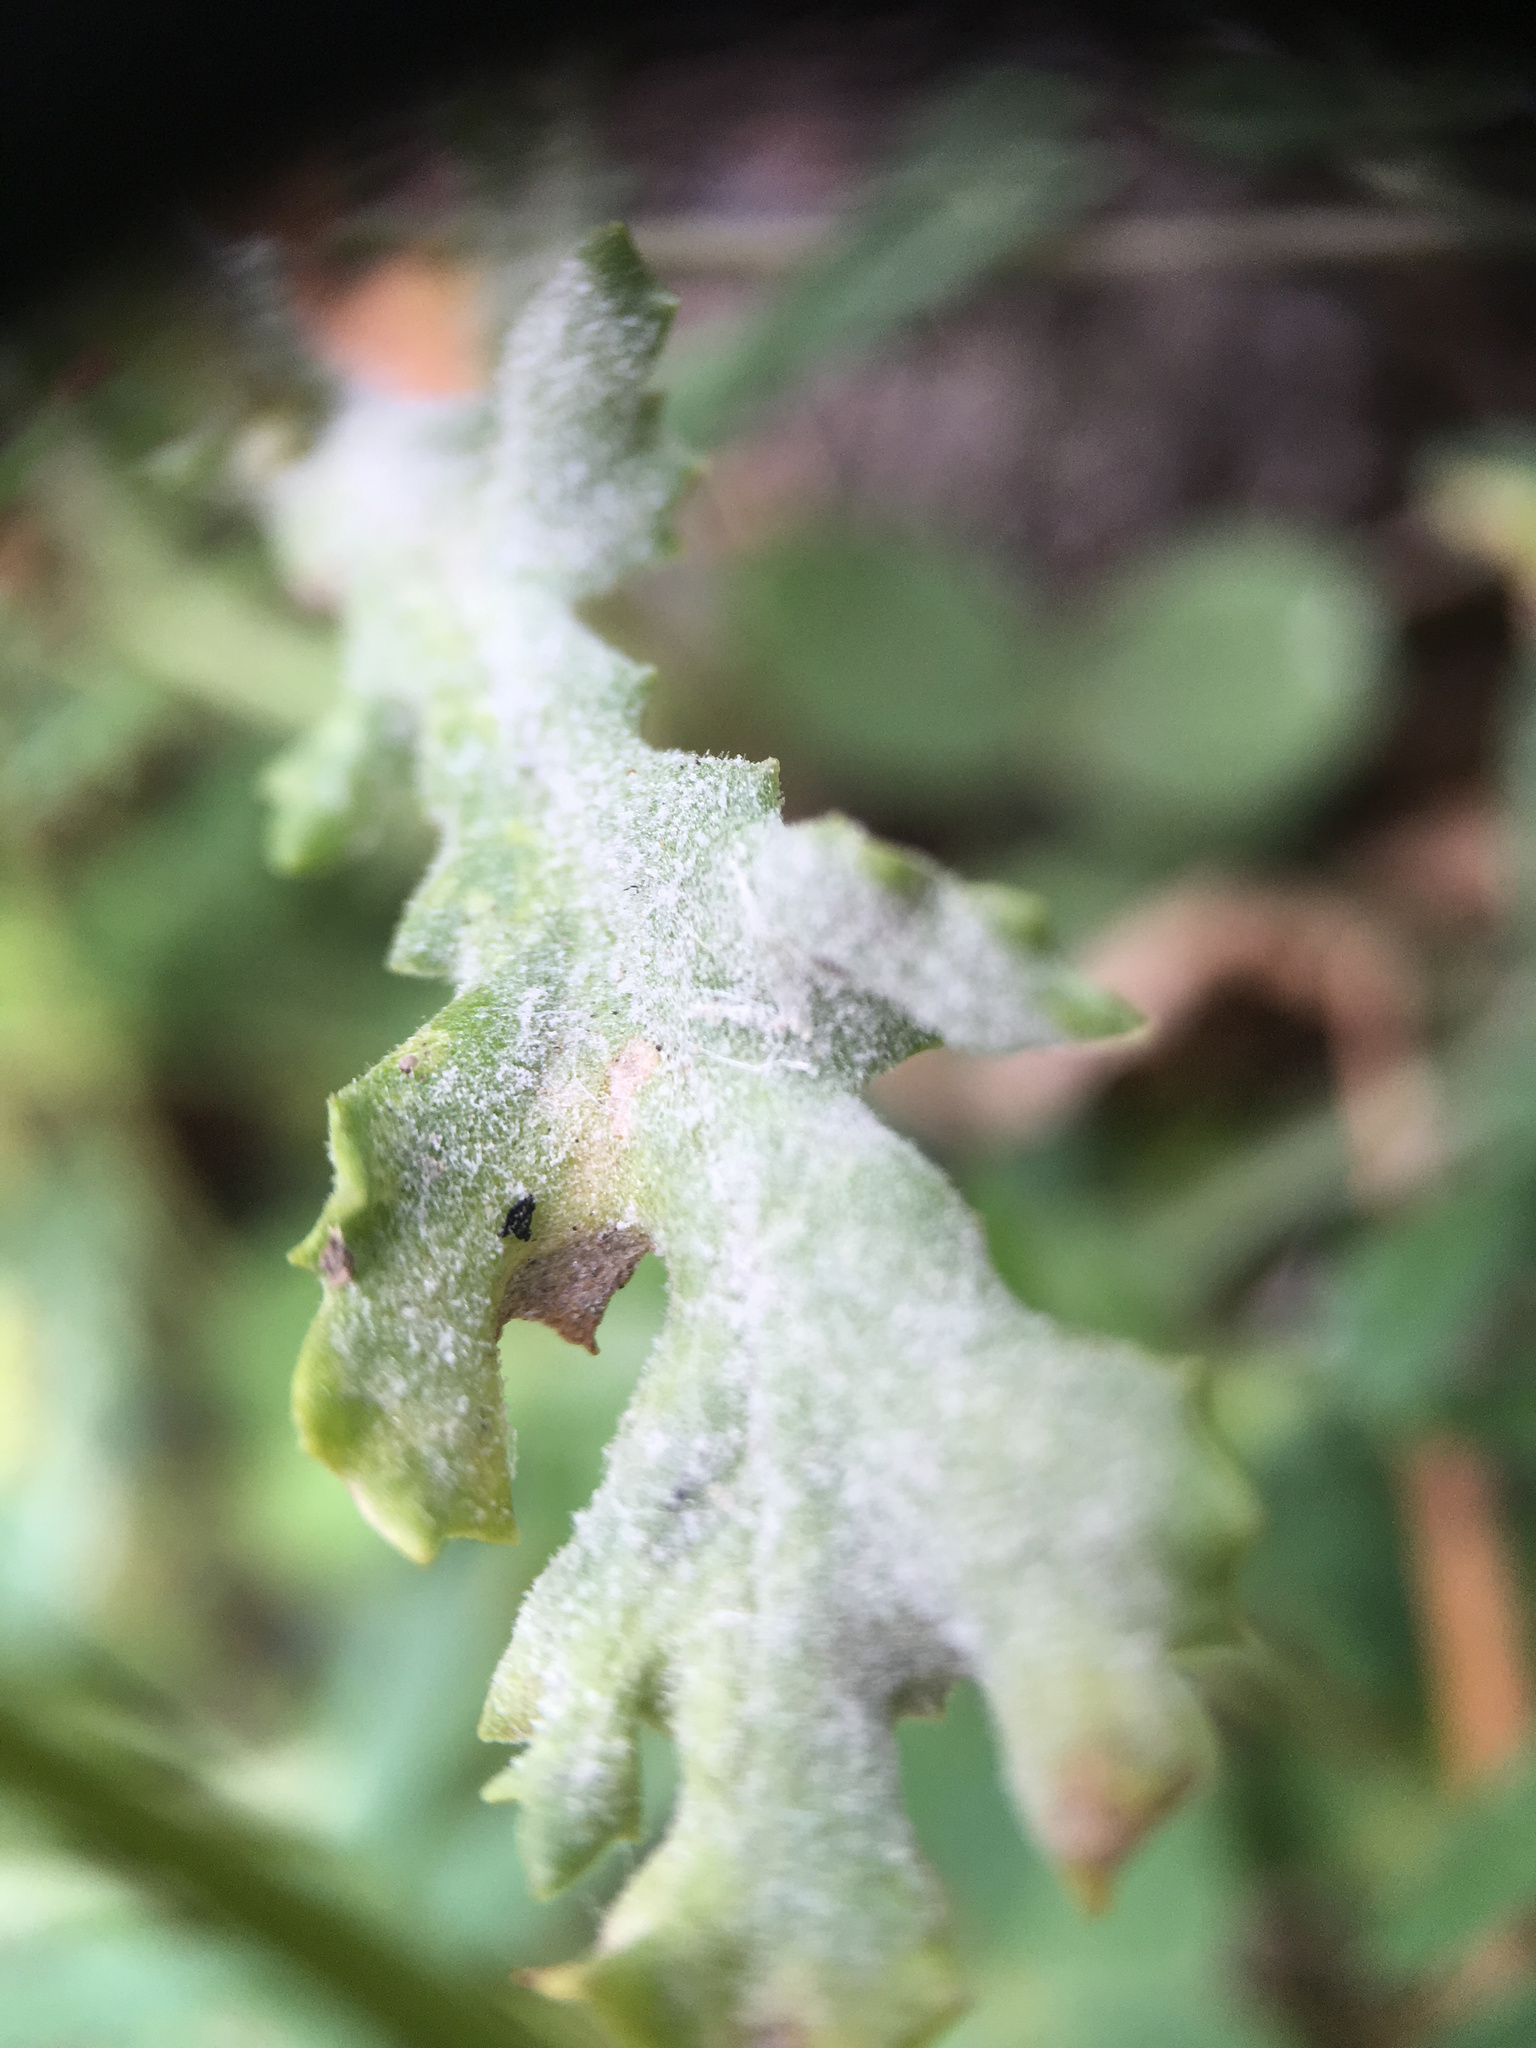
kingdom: Fungi
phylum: Ascomycota
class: Leotiomycetes
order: Helotiales
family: Erysiphaceae
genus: Golovinomyces
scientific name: Golovinomyces fischeri
